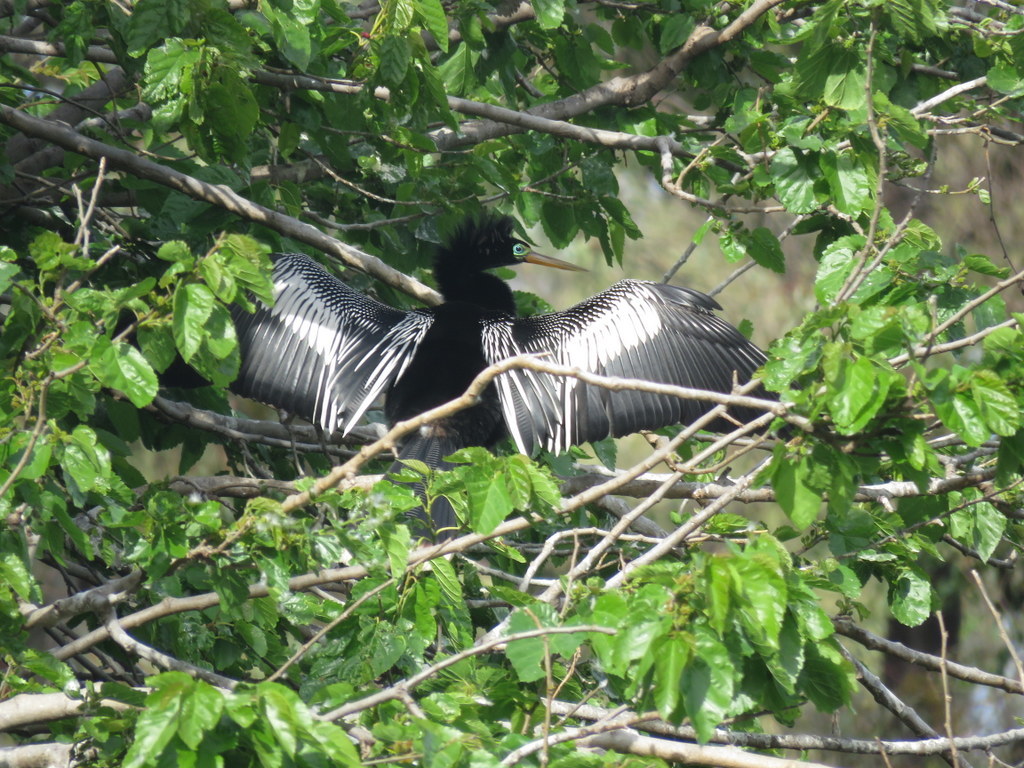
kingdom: Animalia
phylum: Chordata
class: Aves
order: Suliformes
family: Anhingidae
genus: Anhinga
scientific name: Anhinga anhinga
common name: Anhinga
